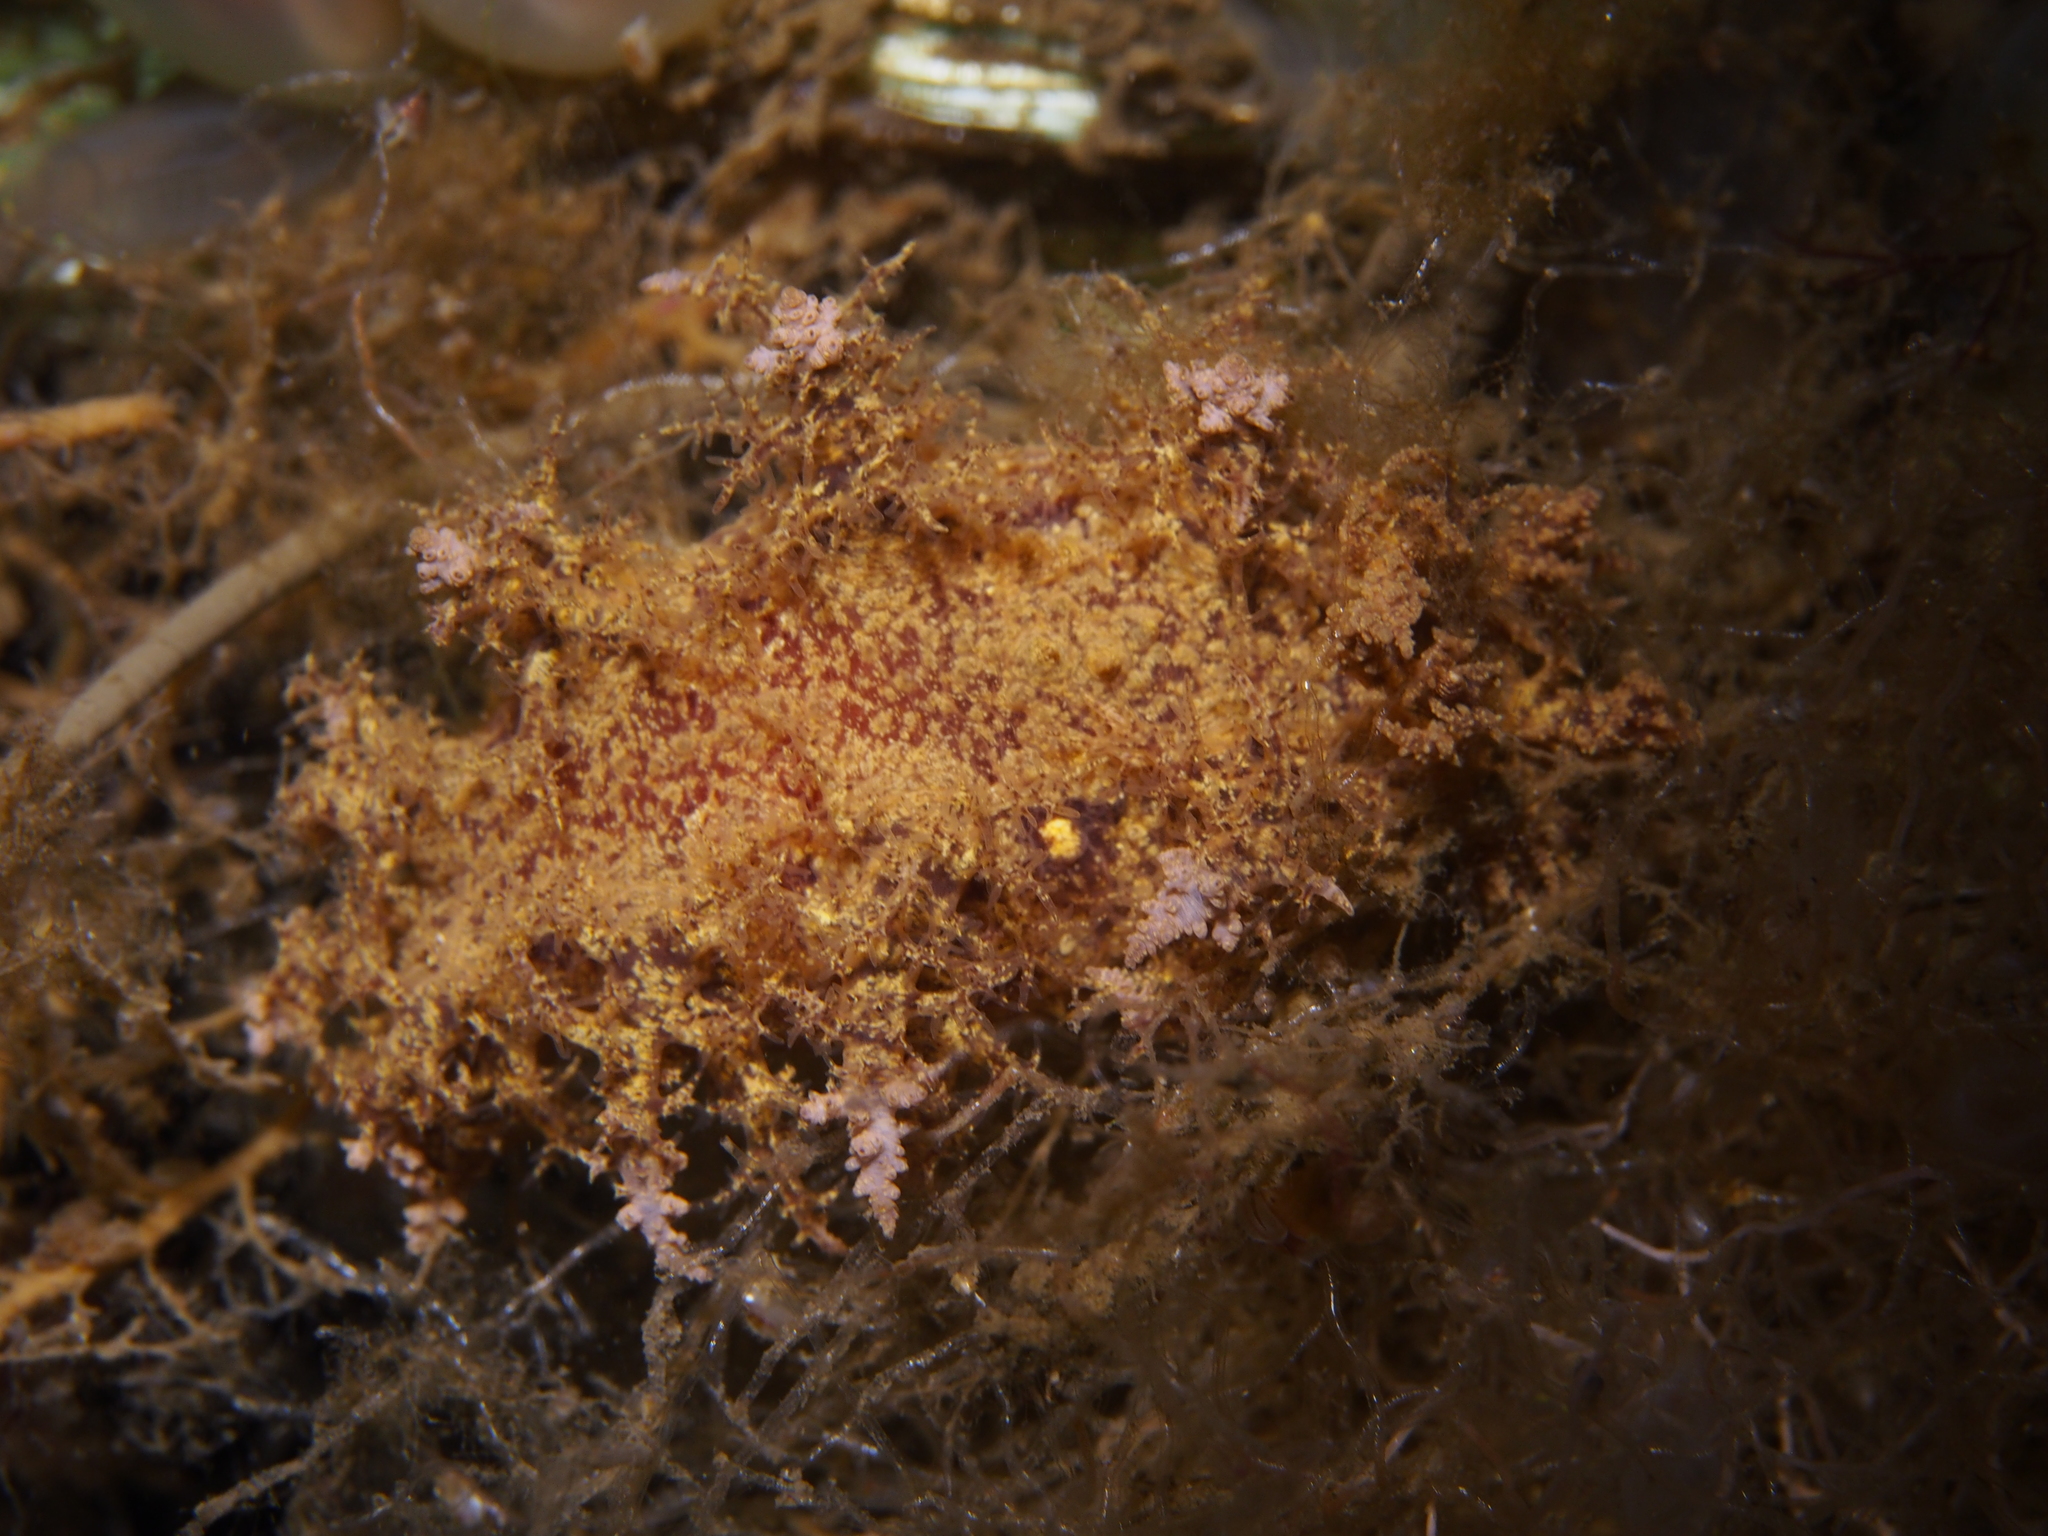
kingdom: Animalia
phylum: Mollusca
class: Gastropoda
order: Nudibranchia
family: Dendronotidae
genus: Dendronotus
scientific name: Dendronotus europaeus
